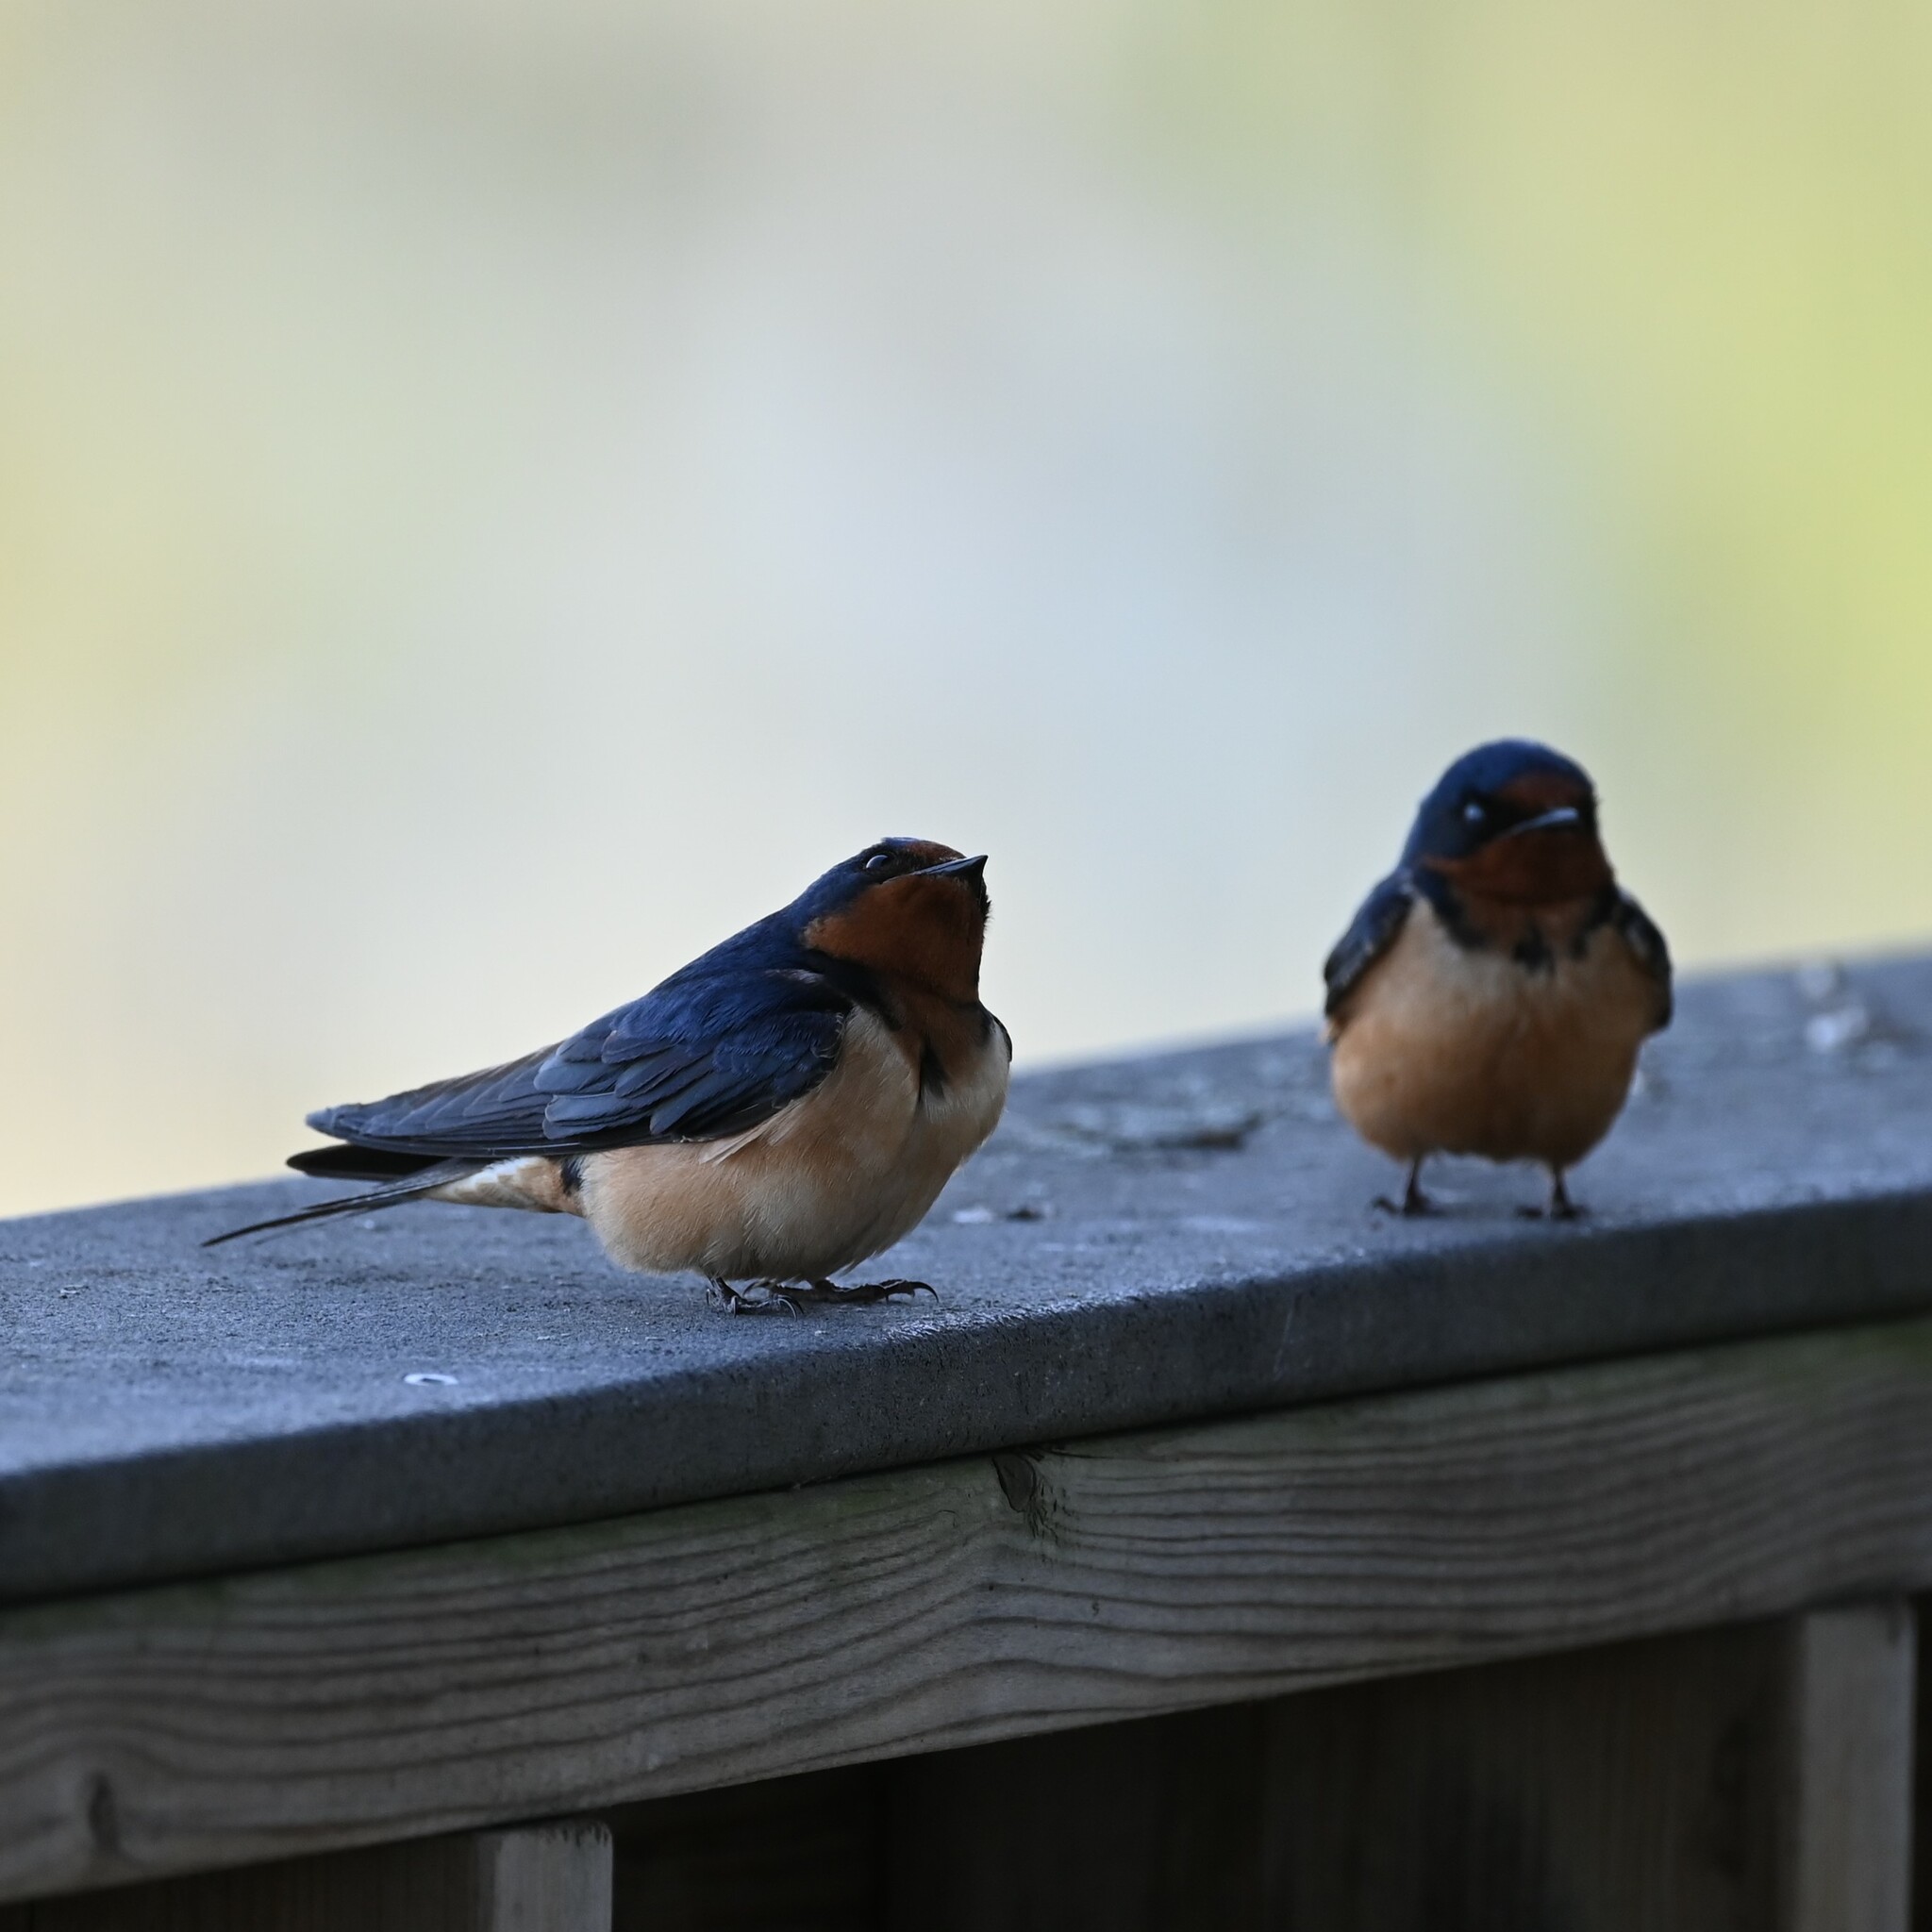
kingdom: Animalia
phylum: Chordata
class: Aves
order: Passeriformes
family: Hirundinidae
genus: Hirundo
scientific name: Hirundo rustica
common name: Barn swallow
